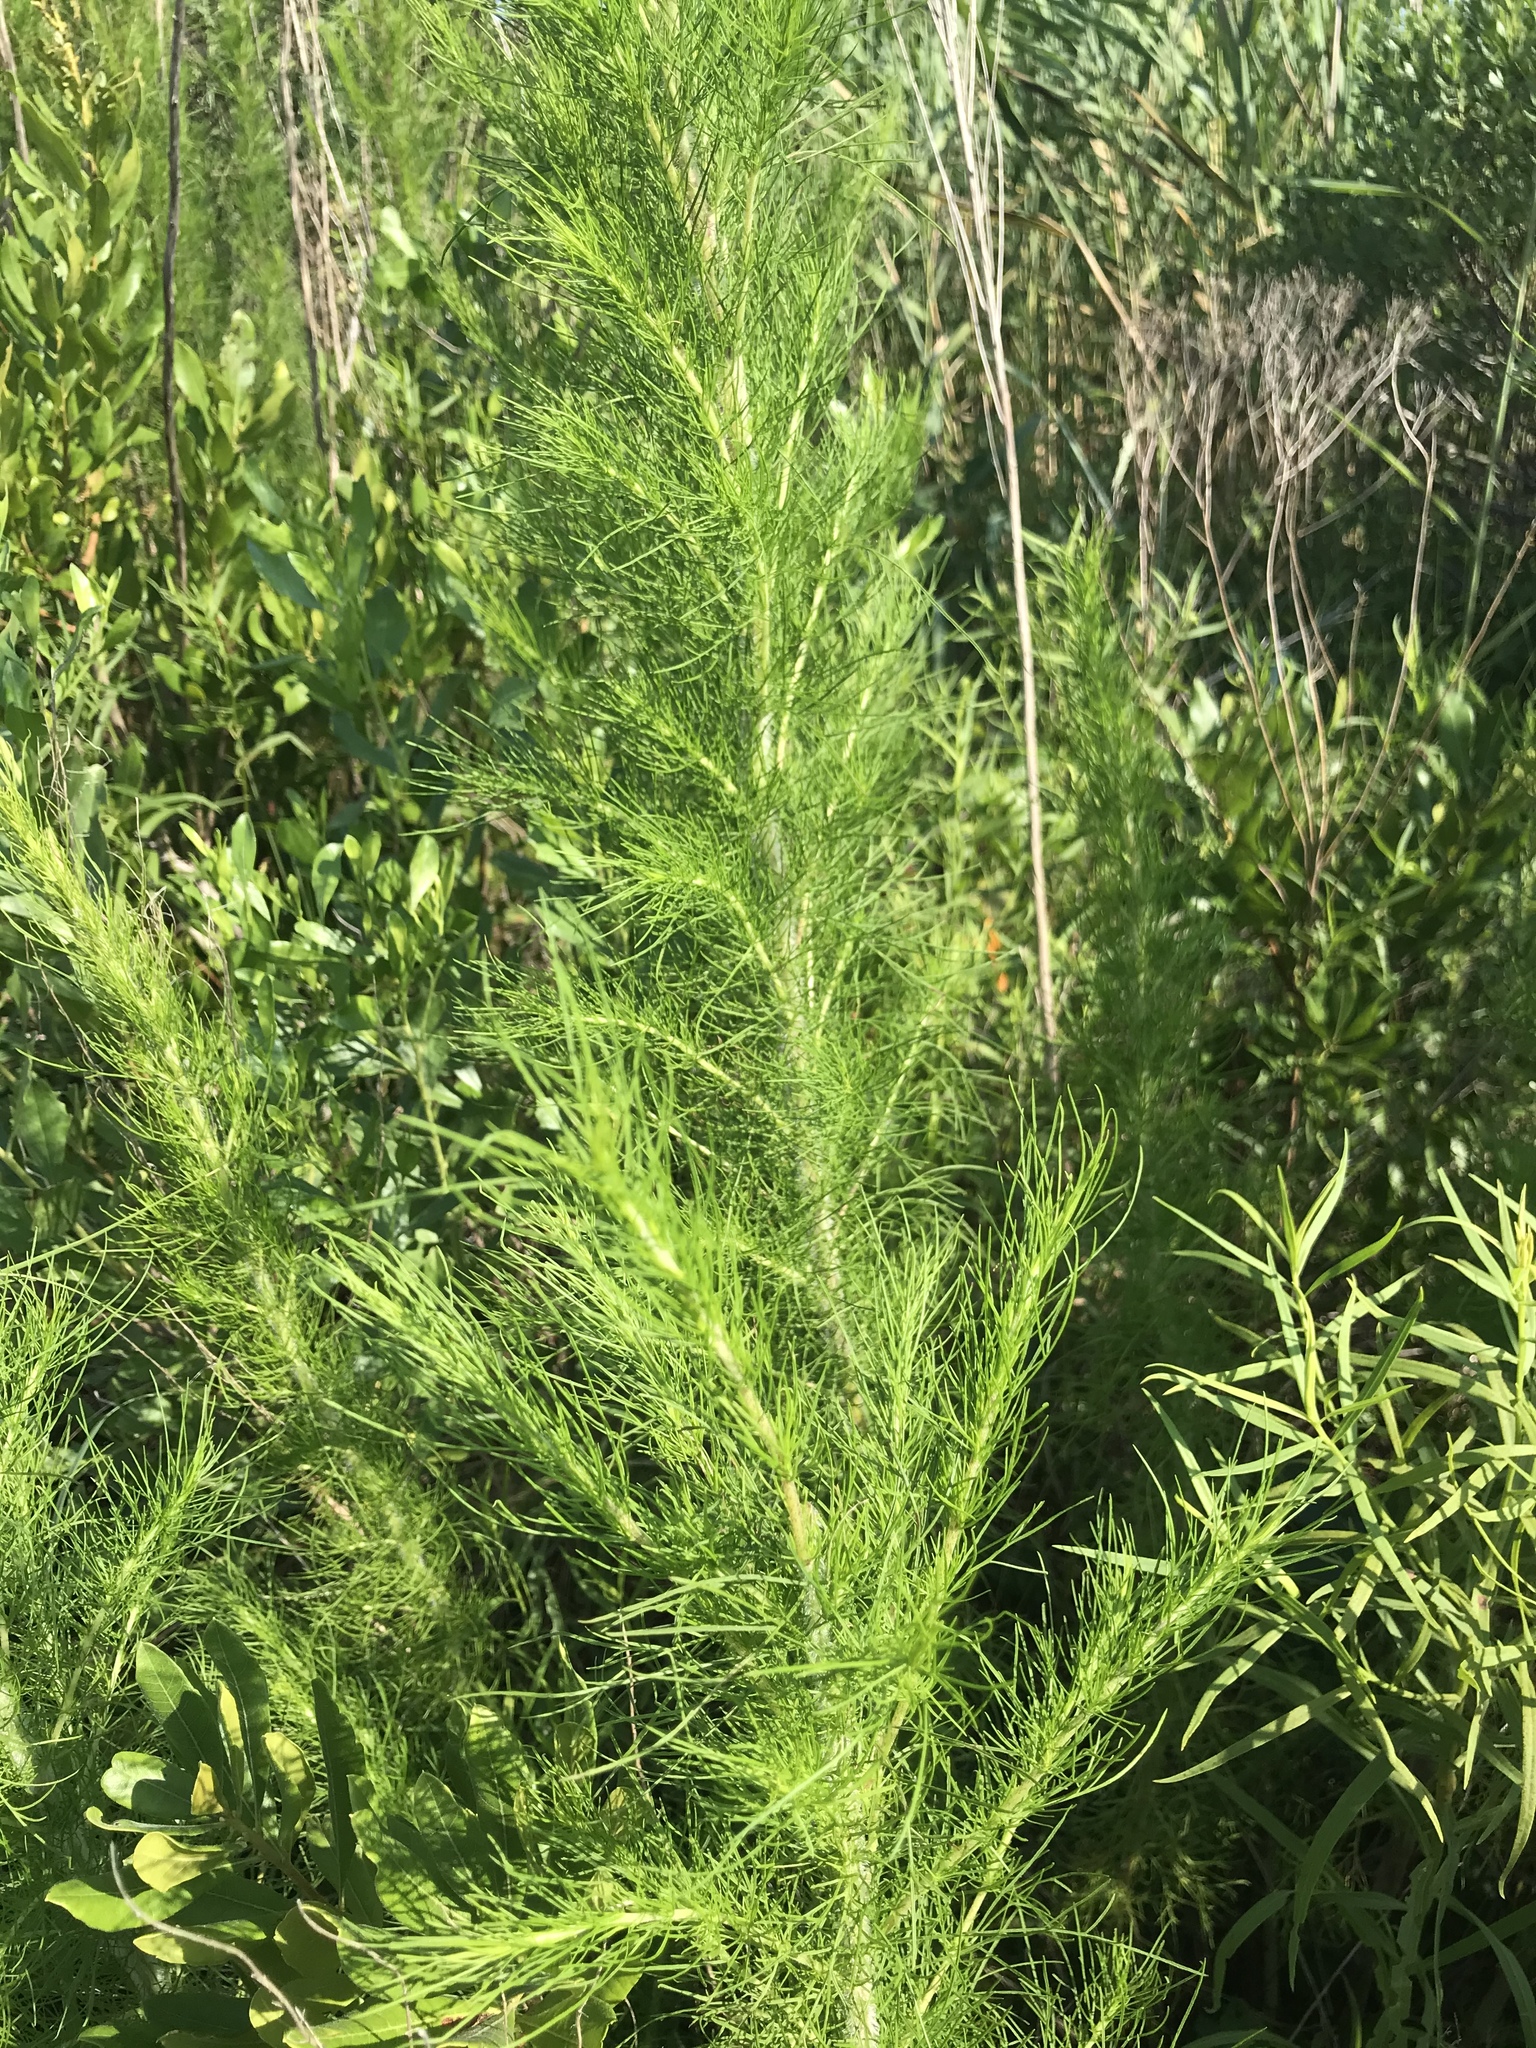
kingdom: Plantae
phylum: Tracheophyta
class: Magnoliopsida
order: Asterales
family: Asteraceae
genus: Eupatorium
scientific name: Eupatorium capillifolium
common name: Dog-fennel
